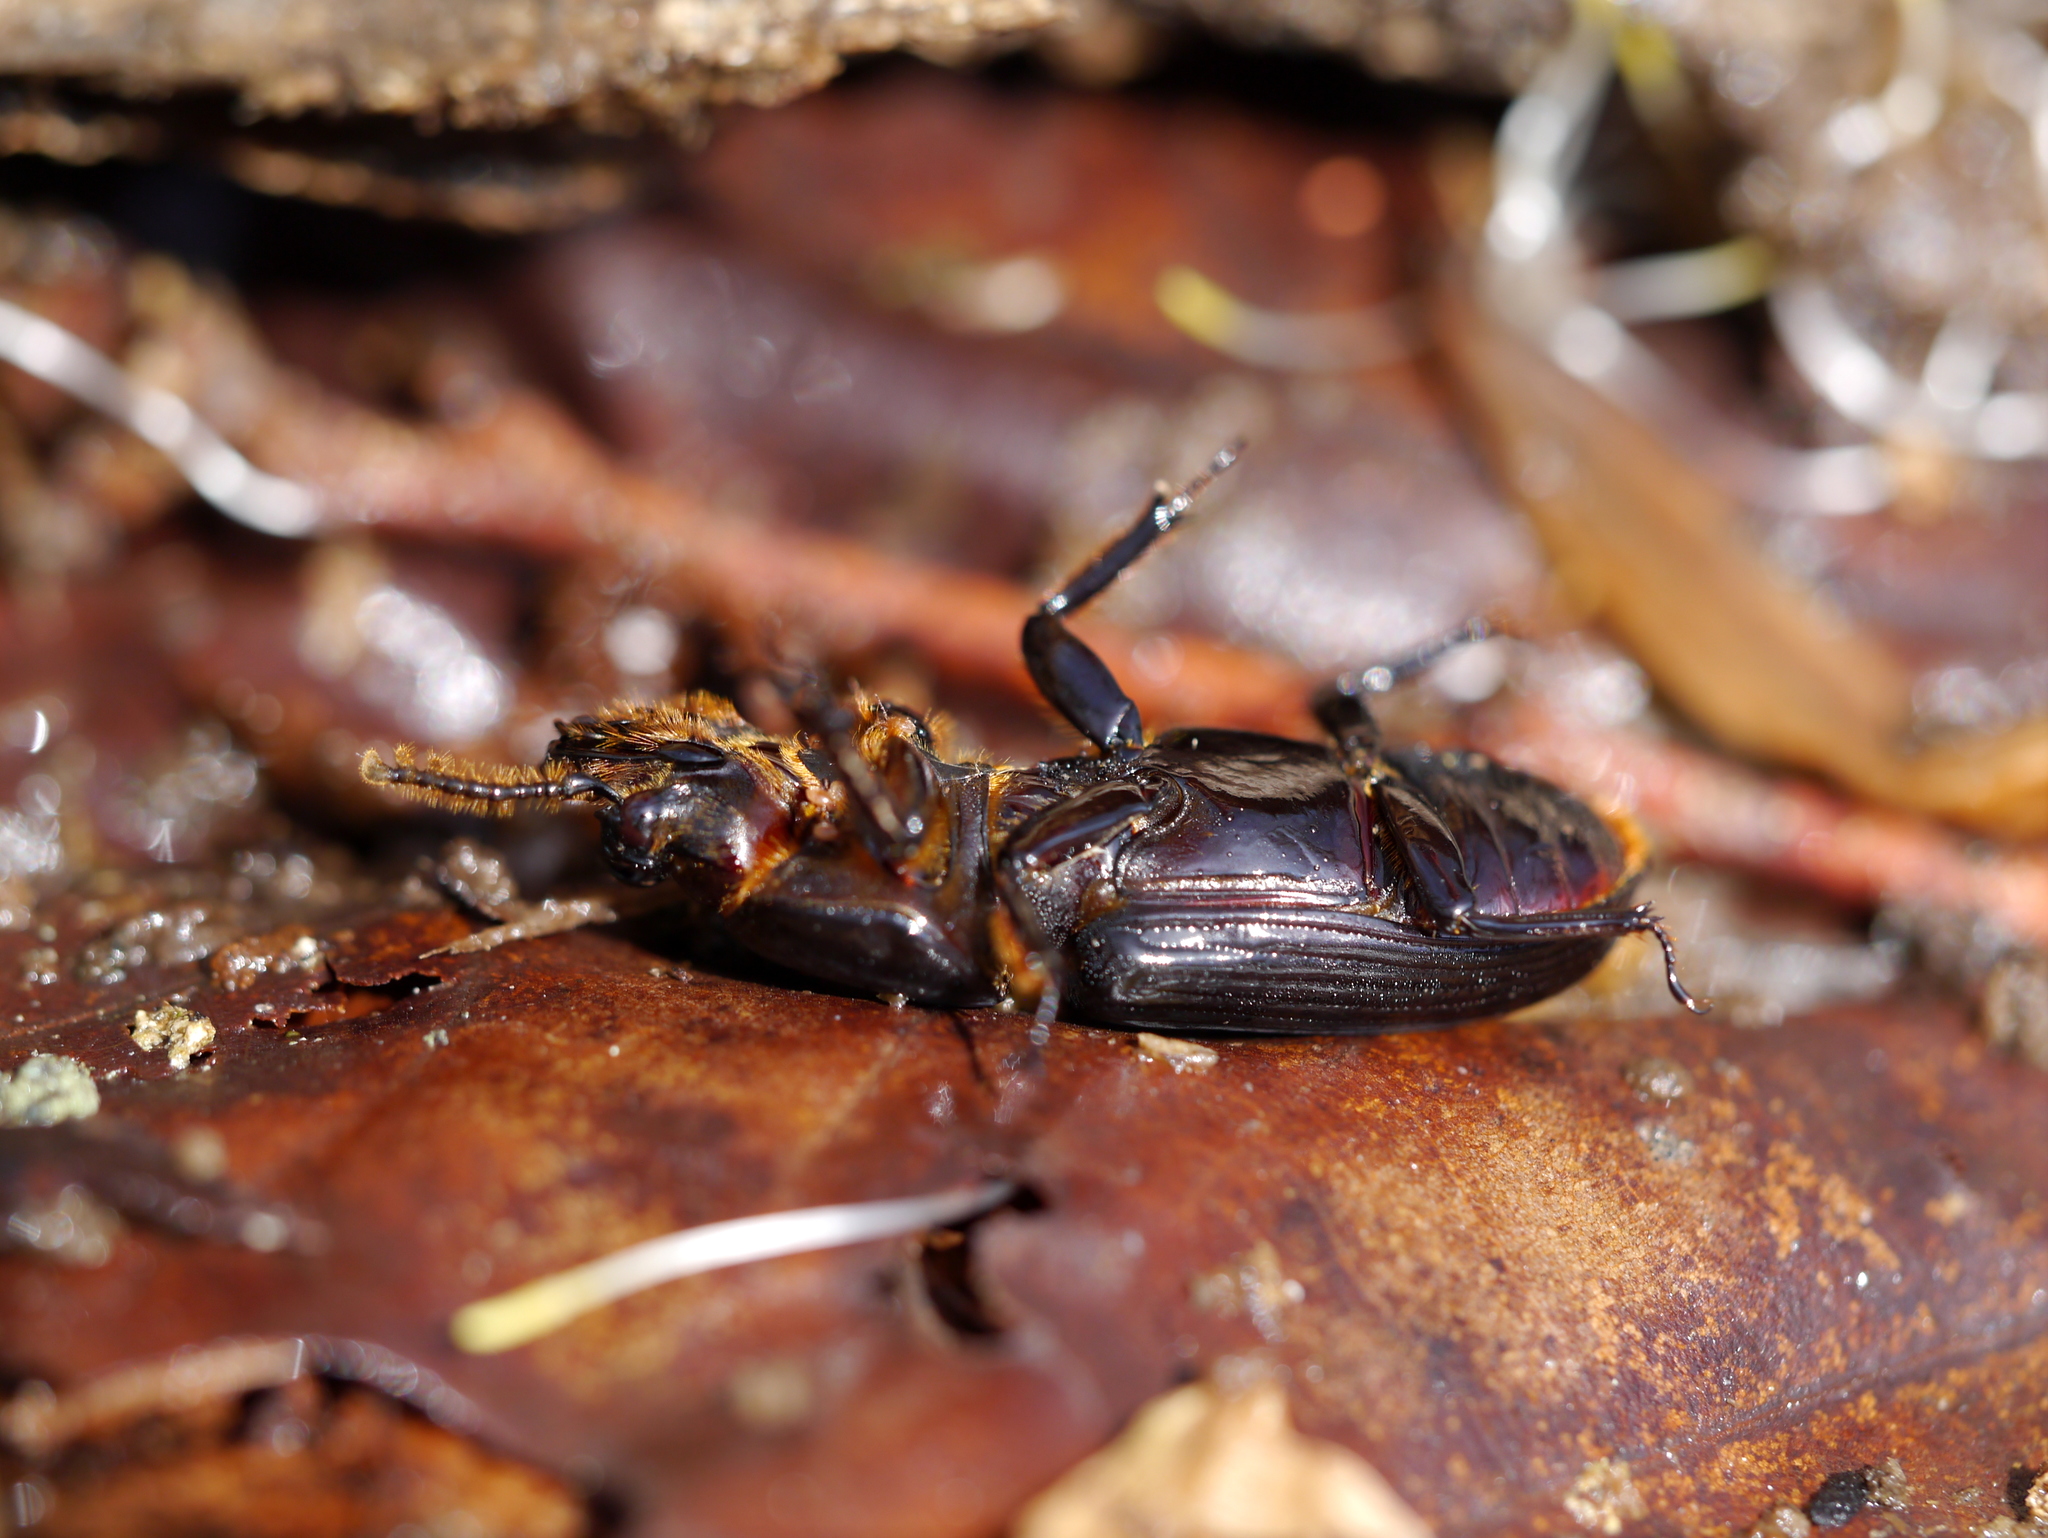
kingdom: Animalia
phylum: Arthropoda
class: Insecta
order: Coleoptera
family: Passalidae
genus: Odontotaenius
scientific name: Odontotaenius disjunctus
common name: Patent leather beetle
